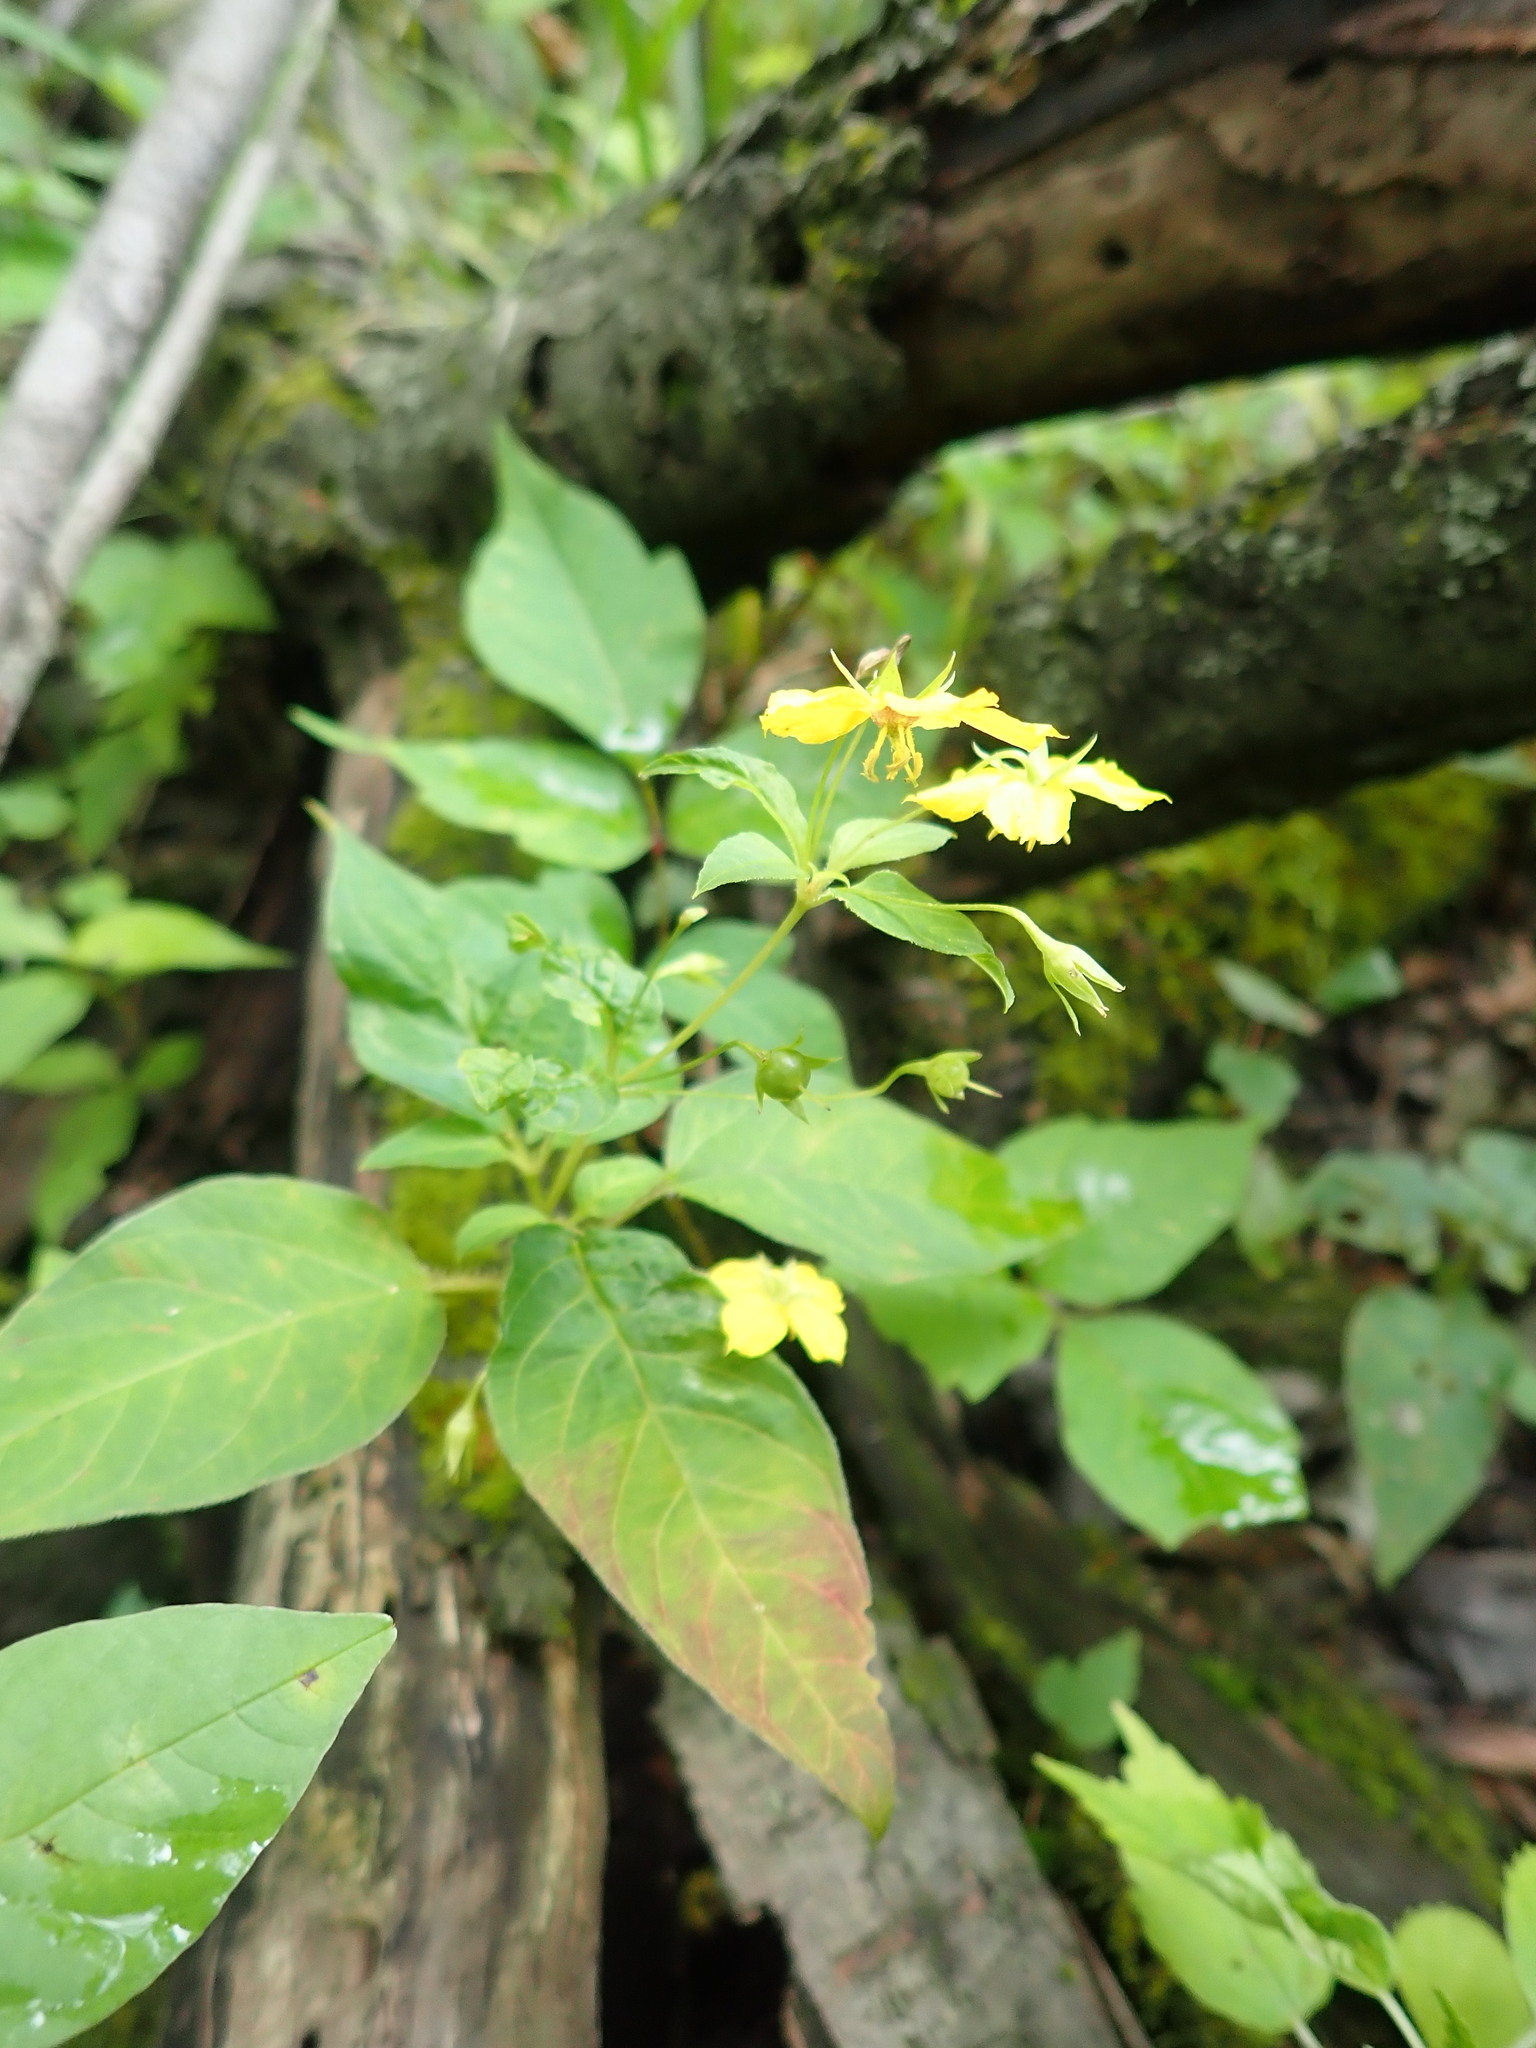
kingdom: Plantae
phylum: Tracheophyta
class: Magnoliopsida
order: Ericales
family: Primulaceae
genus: Lysimachia
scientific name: Lysimachia ciliata
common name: Fringed loosestrife
